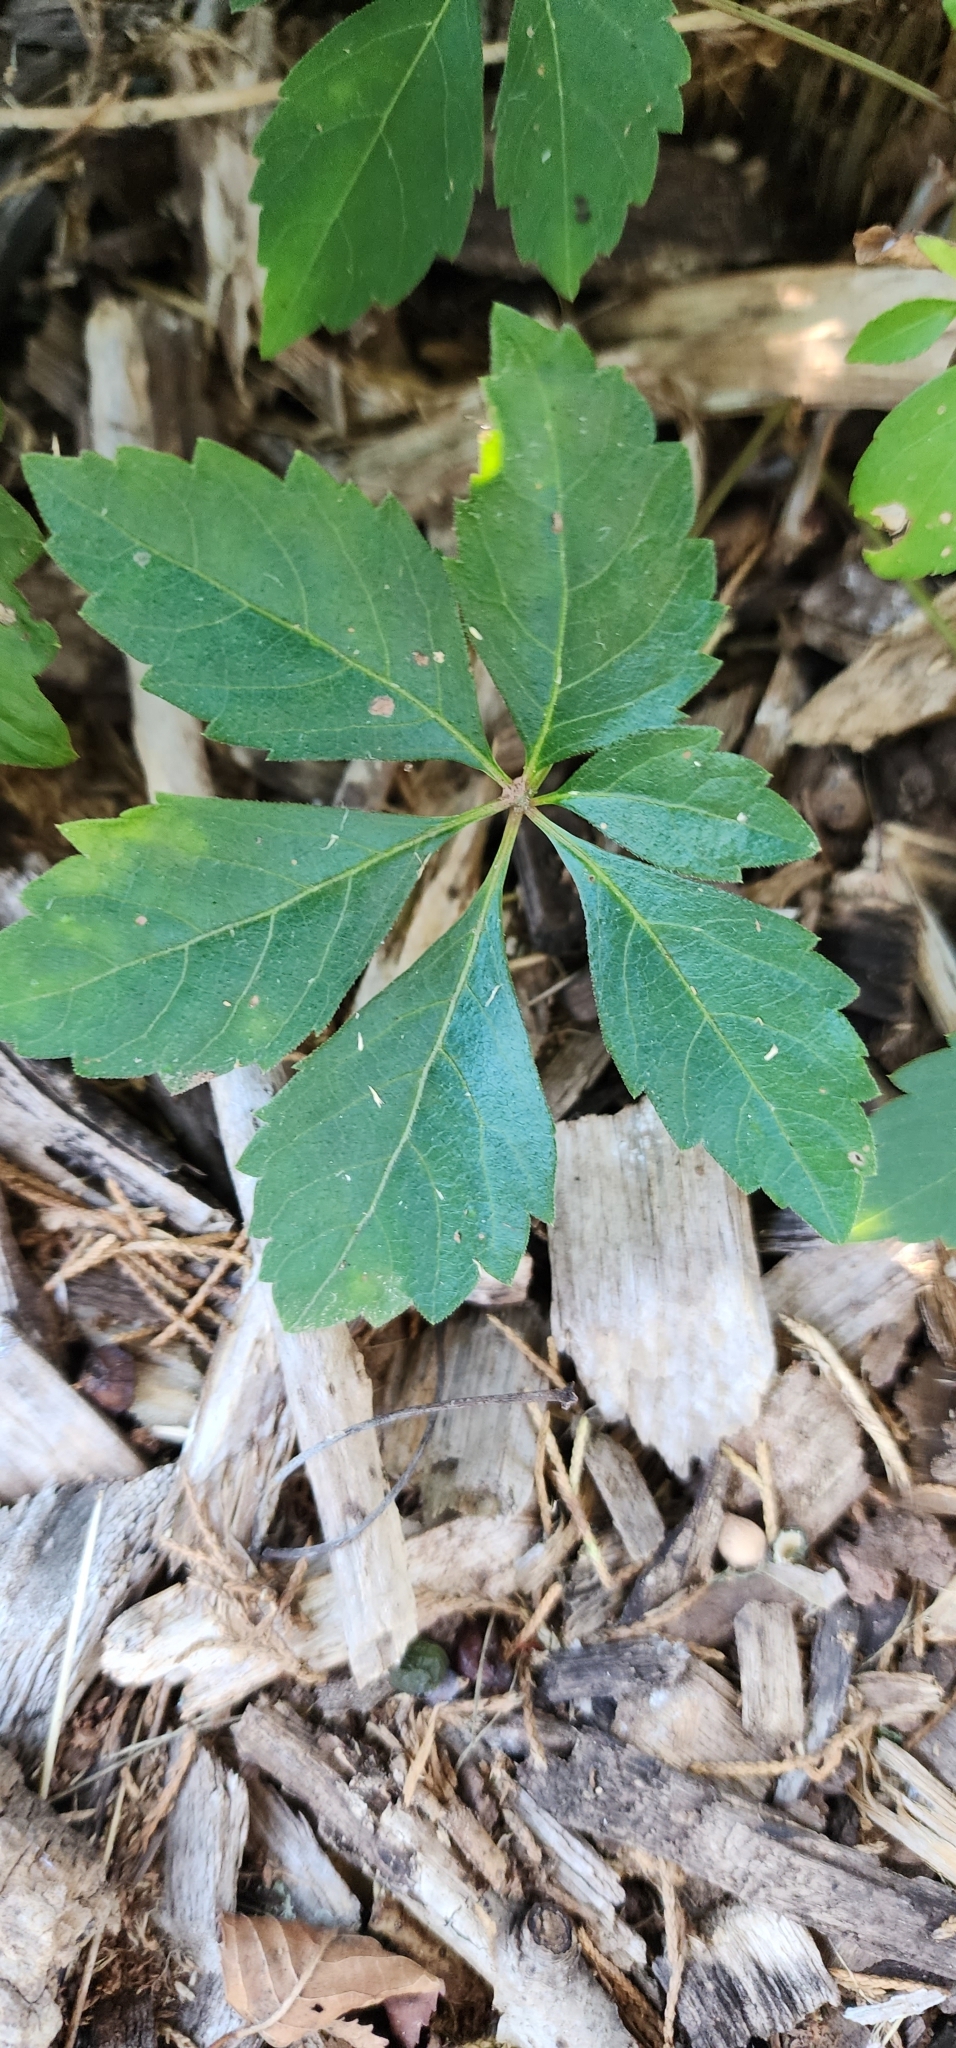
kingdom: Plantae
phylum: Tracheophyta
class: Magnoliopsida
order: Vitales
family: Vitaceae
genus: Parthenocissus
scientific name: Parthenocissus quinquefolia
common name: Virginia-creeper
